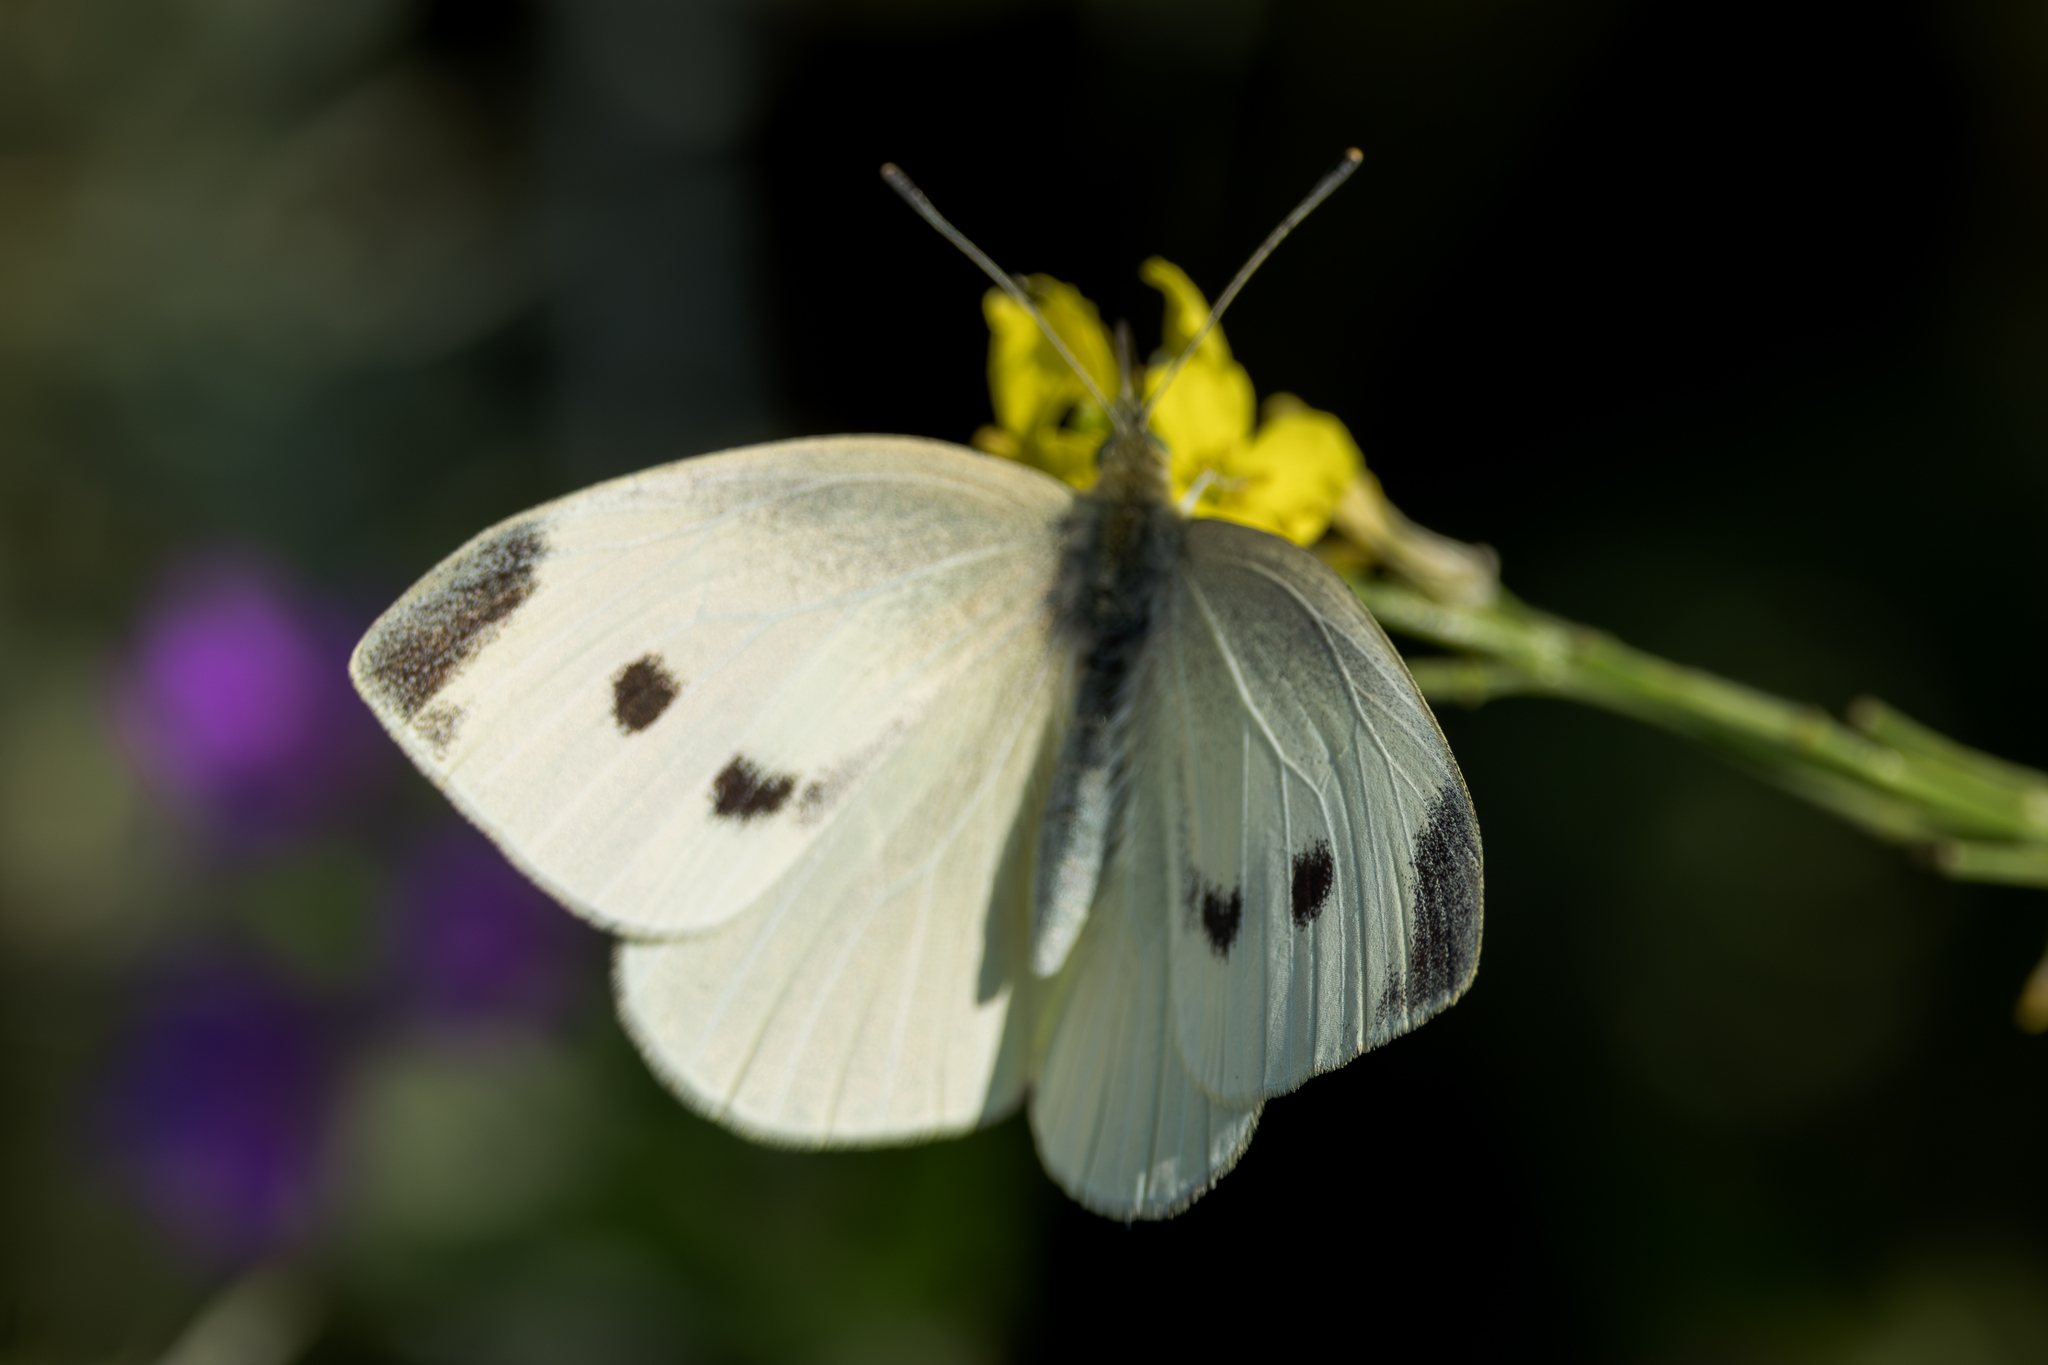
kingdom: Animalia
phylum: Arthropoda
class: Insecta
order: Lepidoptera
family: Pieridae
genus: Pieris
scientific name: Pieris rapae
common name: Small white
